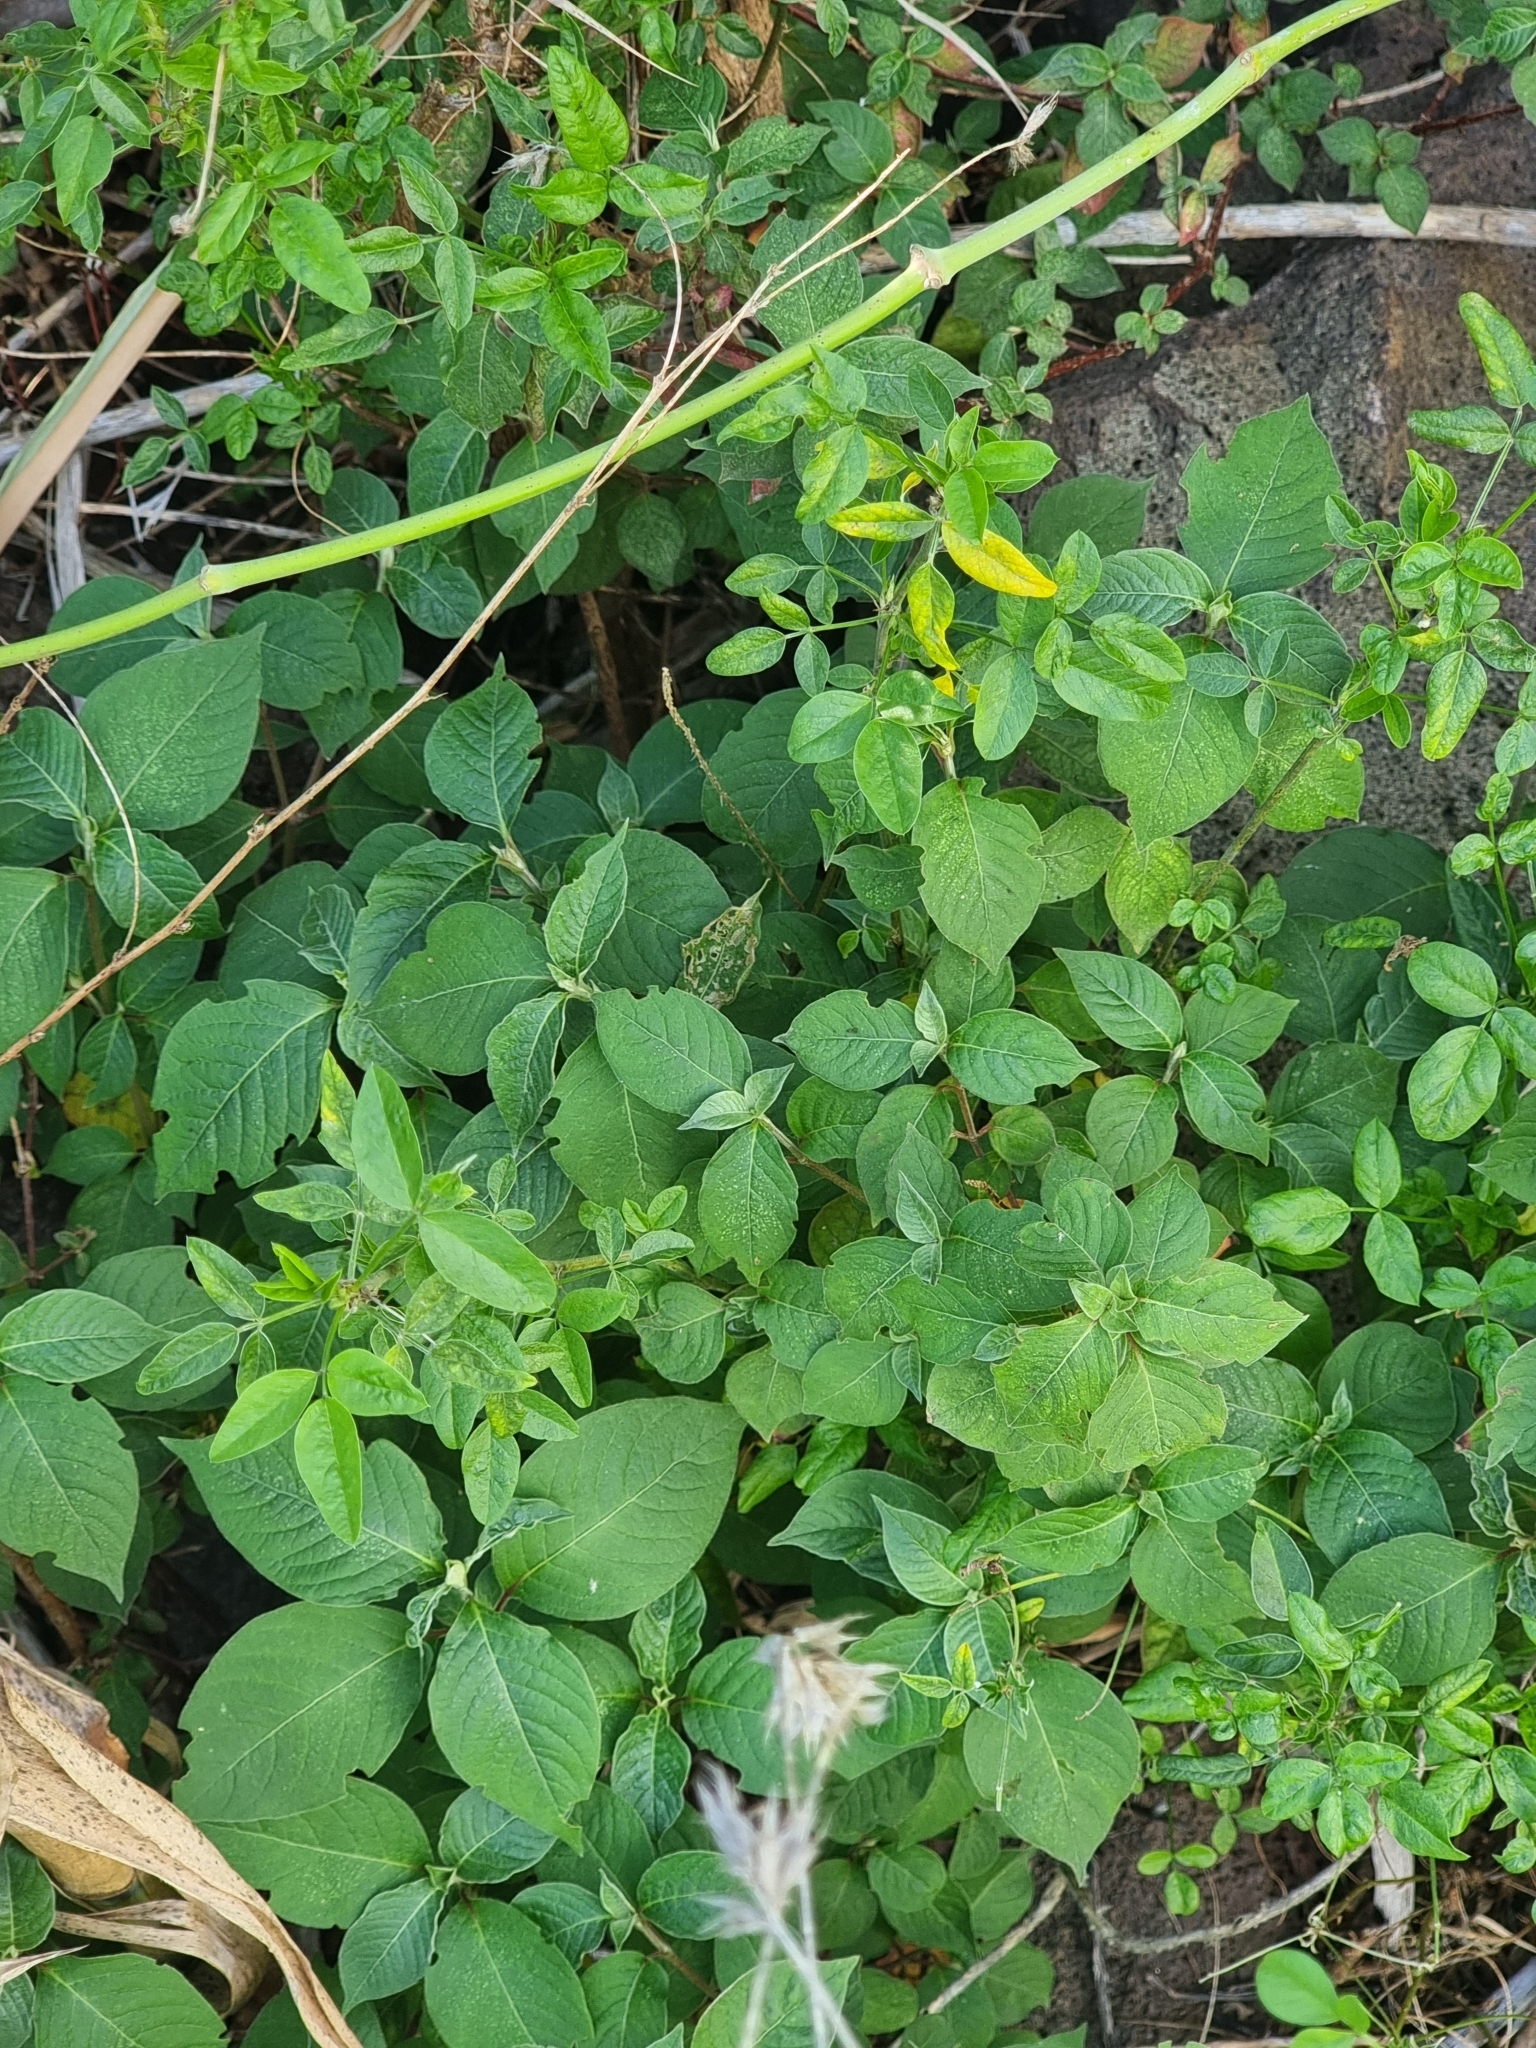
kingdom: Plantae
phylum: Tracheophyta
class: Magnoliopsida
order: Caryophyllales
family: Amaranthaceae
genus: Achyranthes
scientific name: Achyranthes aspera
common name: Devil's horsewhip
